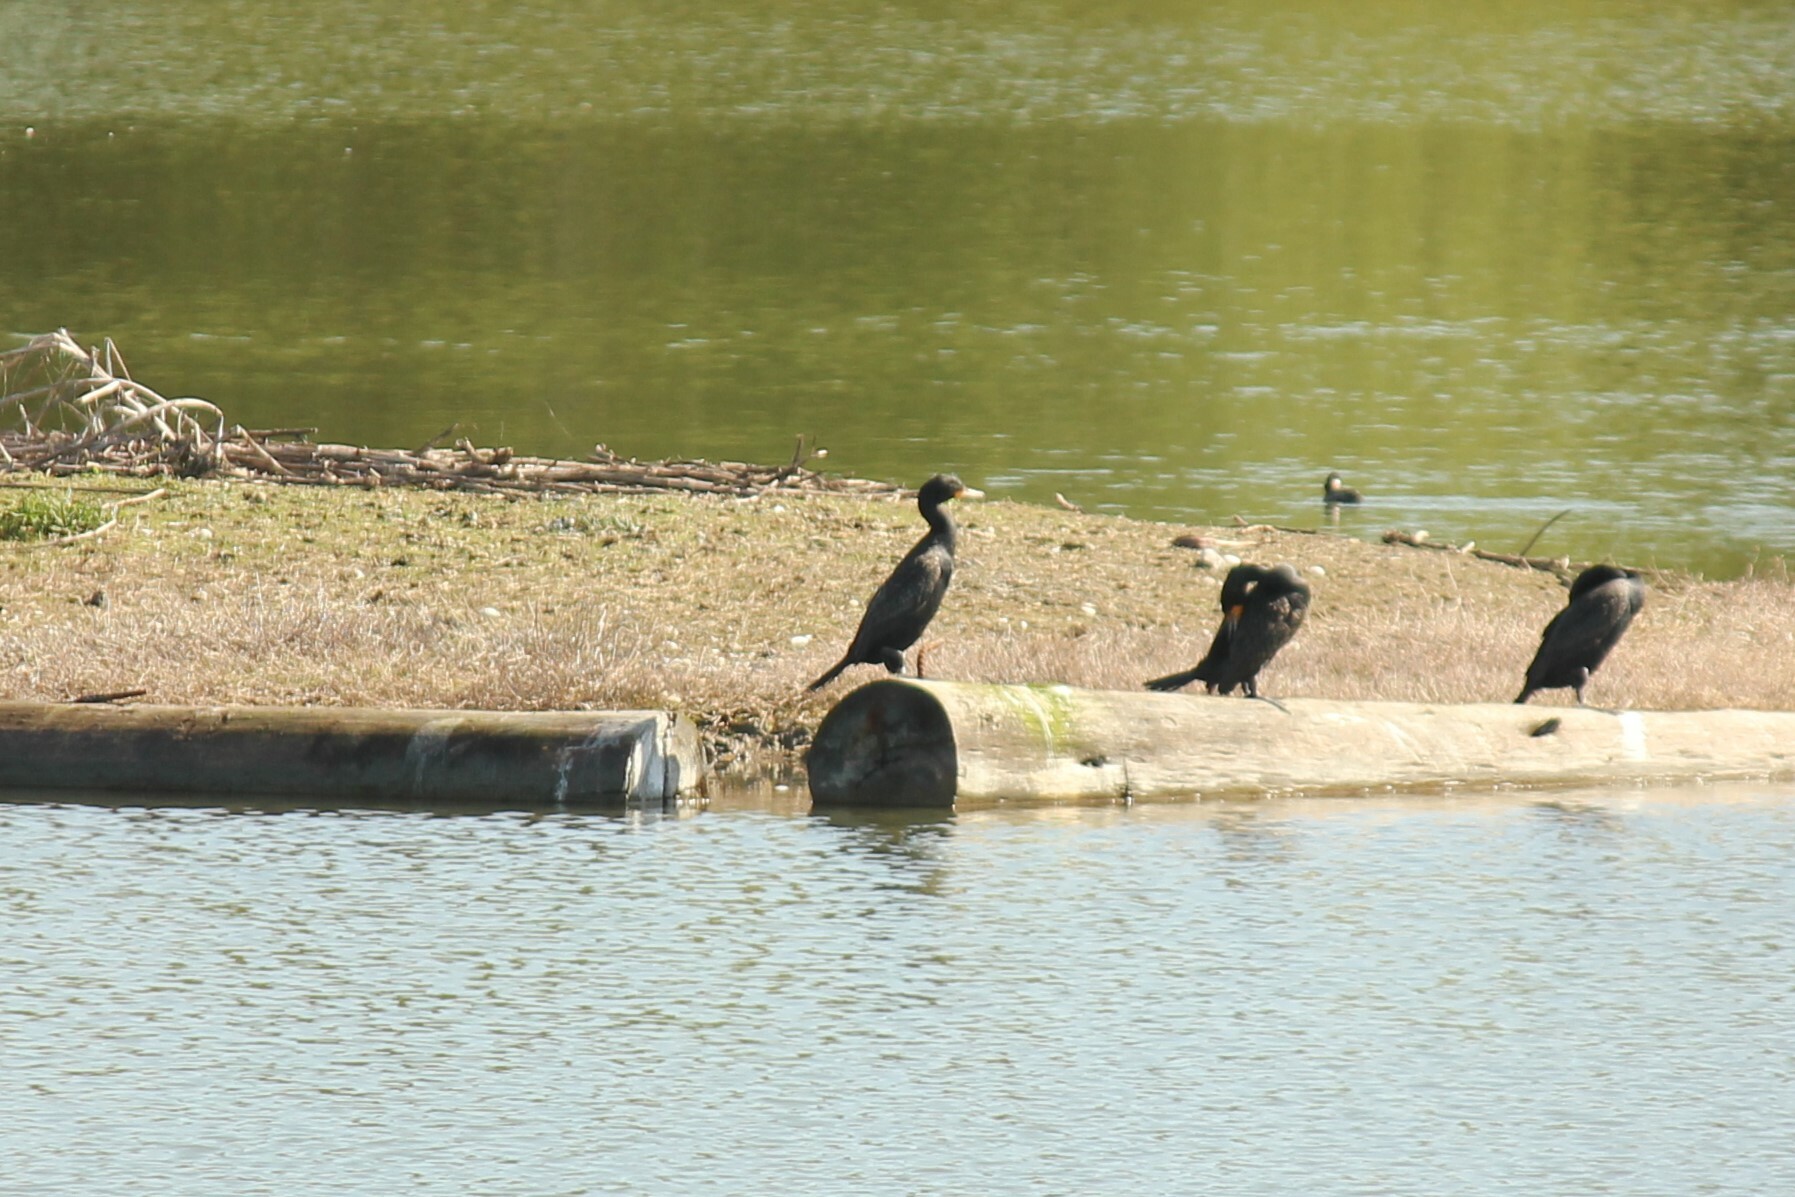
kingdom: Animalia
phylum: Chordata
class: Aves
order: Suliformes
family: Phalacrocoracidae
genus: Phalacrocorax
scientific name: Phalacrocorax auritus
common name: Double-crested cormorant
